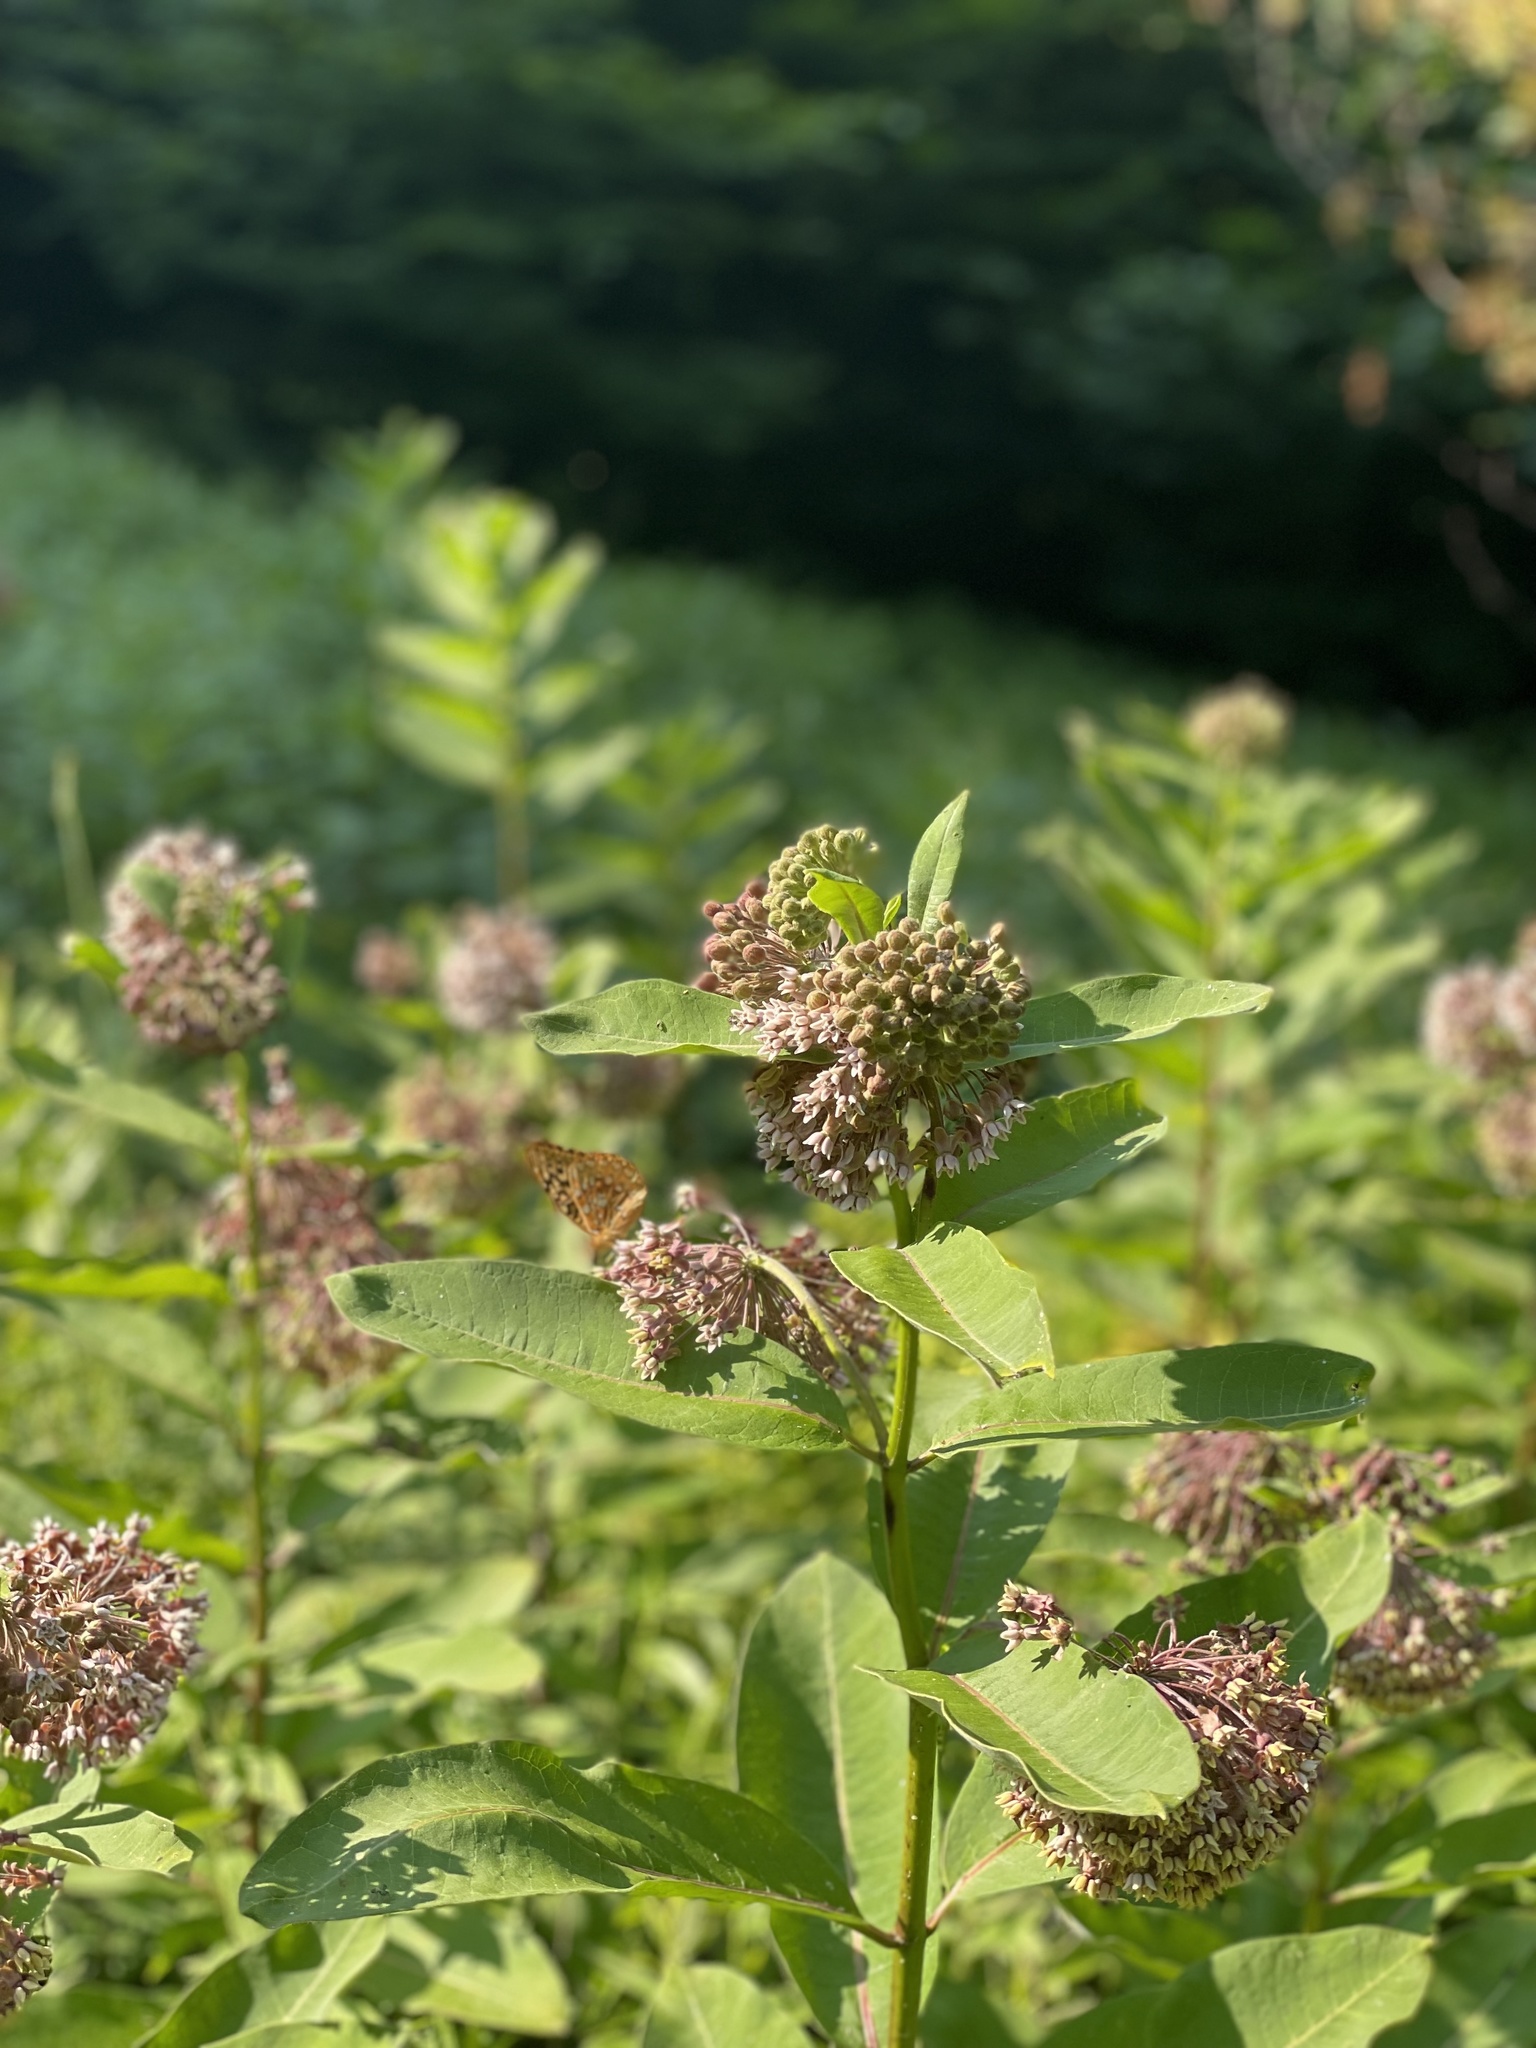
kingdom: Animalia
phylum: Arthropoda
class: Insecta
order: Lepidoptera
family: Nymphalidae
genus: Speyeria
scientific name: Speyeria cybele
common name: Great spangled fritillary
